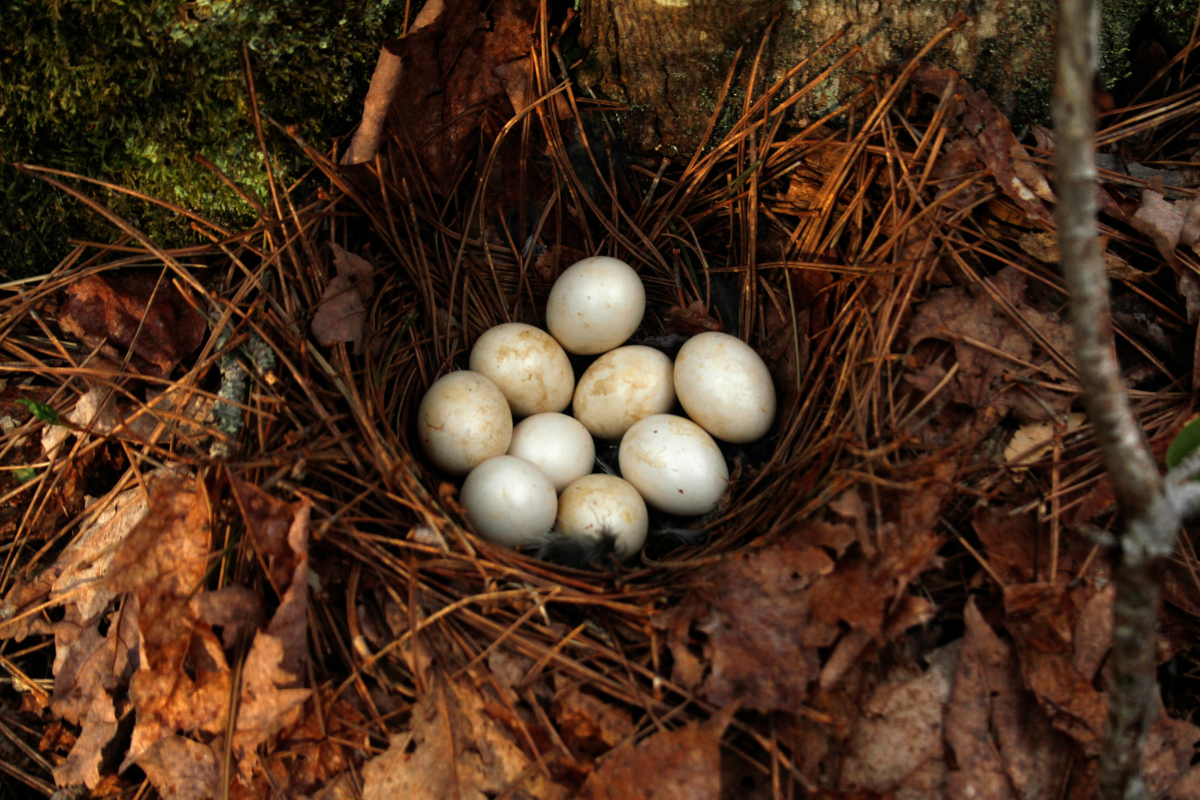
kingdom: Animalia
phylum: Chordata
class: Aves
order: Galliformes
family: Phasianidae
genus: Bonasa
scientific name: Bonasa umbellus
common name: Ruffed grouse
